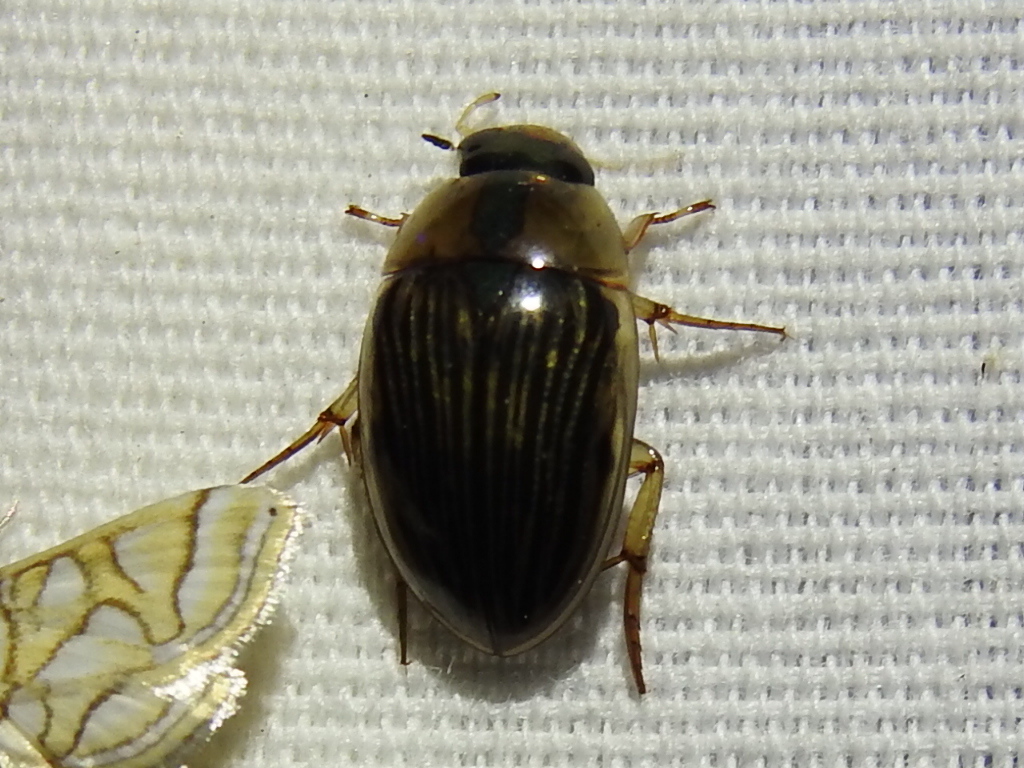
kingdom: Animalia
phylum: Arthropoda
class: Insecta
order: Coleoptera
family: Hydrophilidae
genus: Tropisternus
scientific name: Tropisternus collaris
